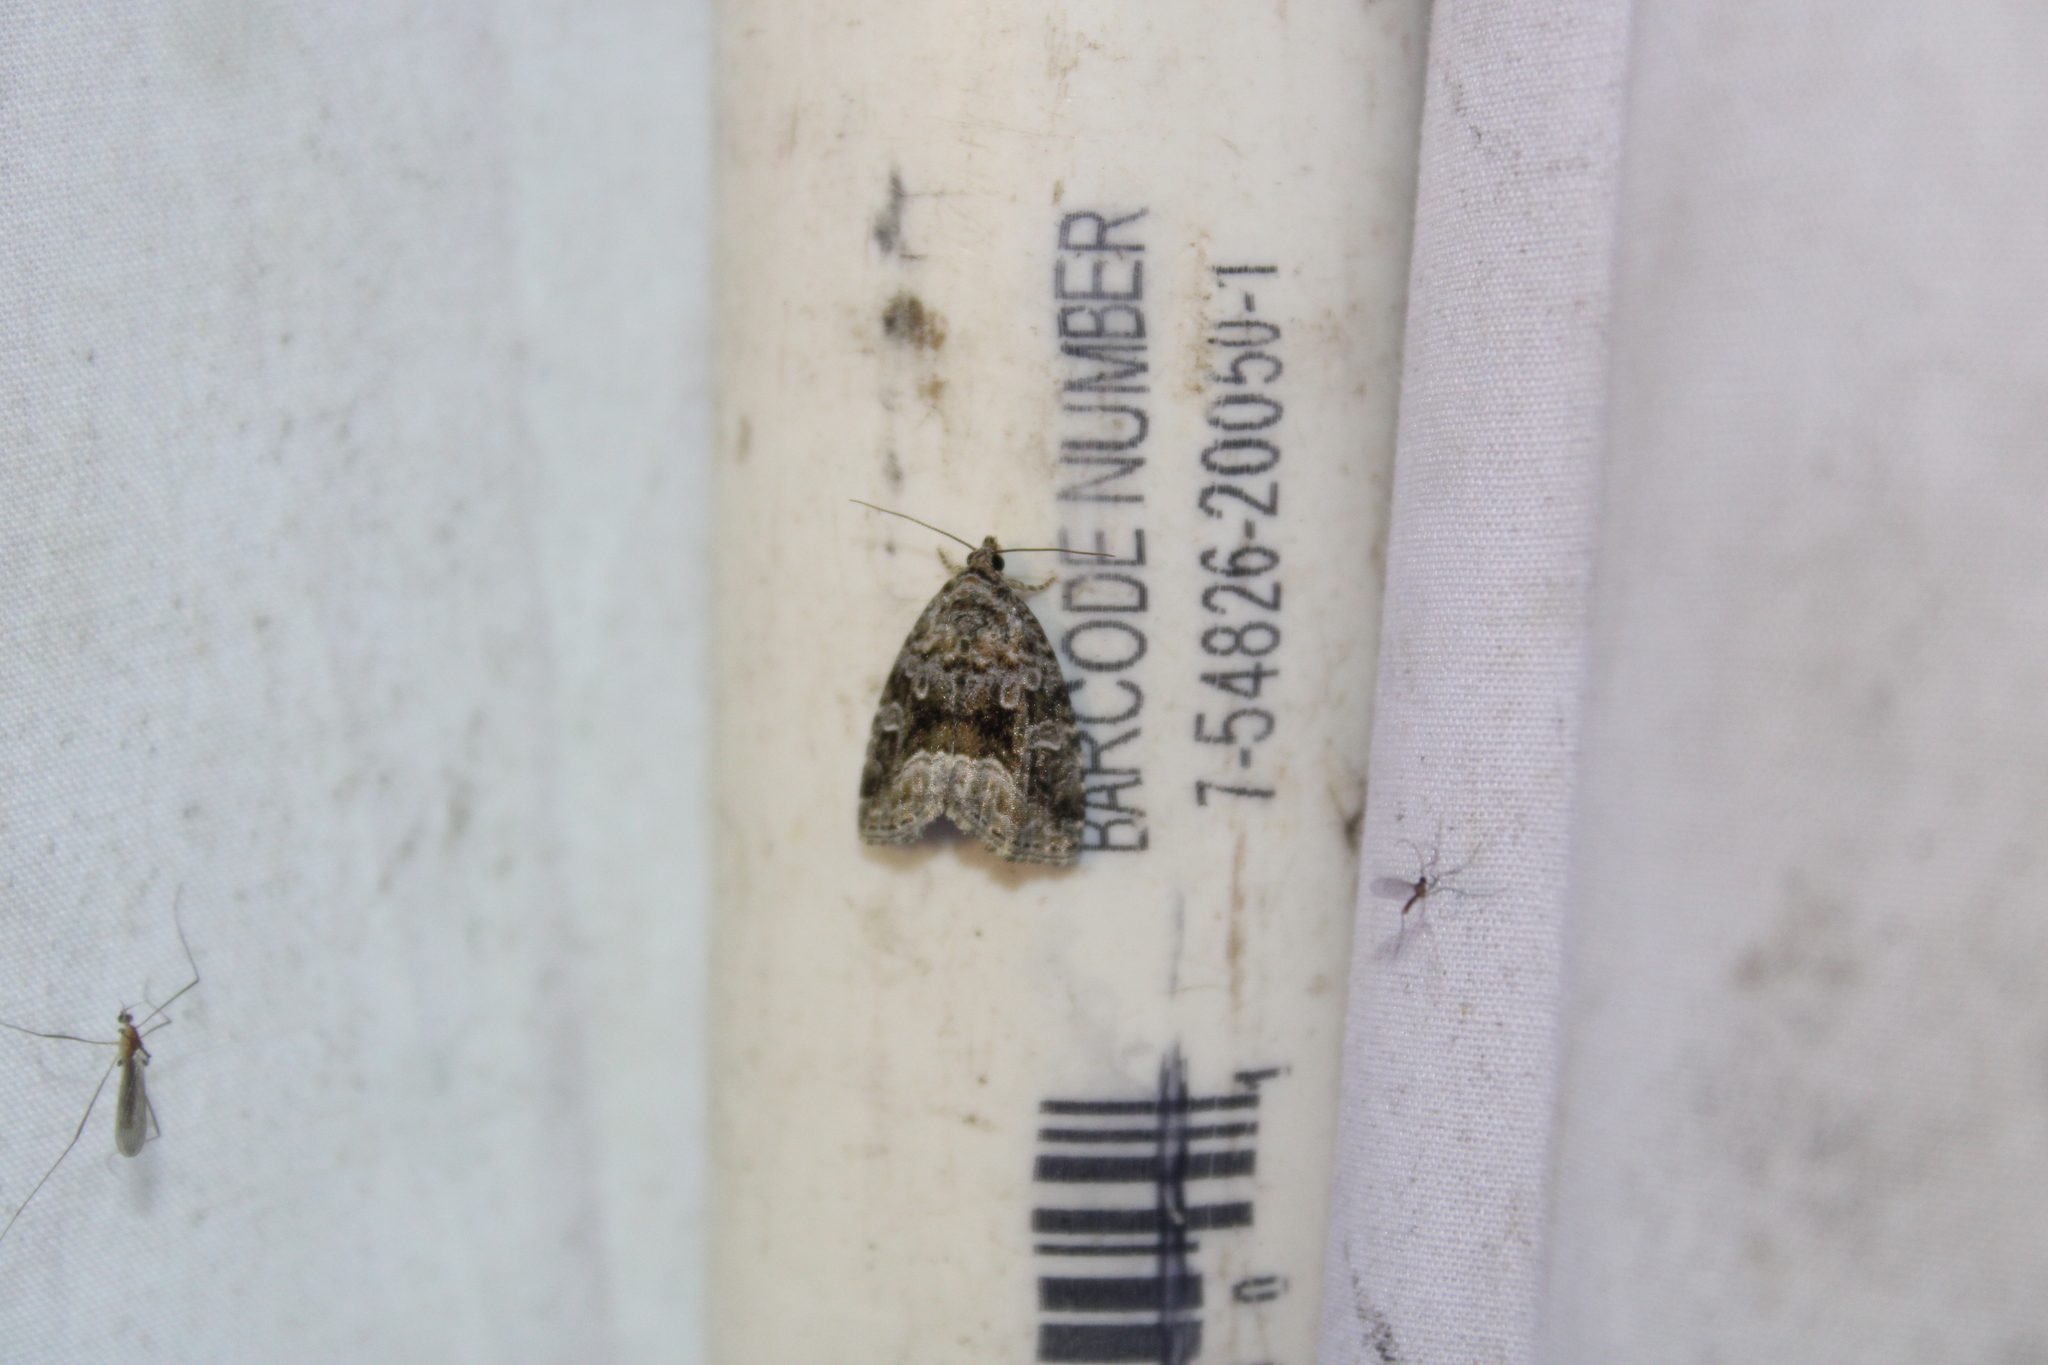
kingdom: Animalia
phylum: Arthropoda
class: Insecta
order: Lepidoptera
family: Noctuidae
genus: Protodeltote
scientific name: Protodeltote muscosula
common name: Large mossy glyph
